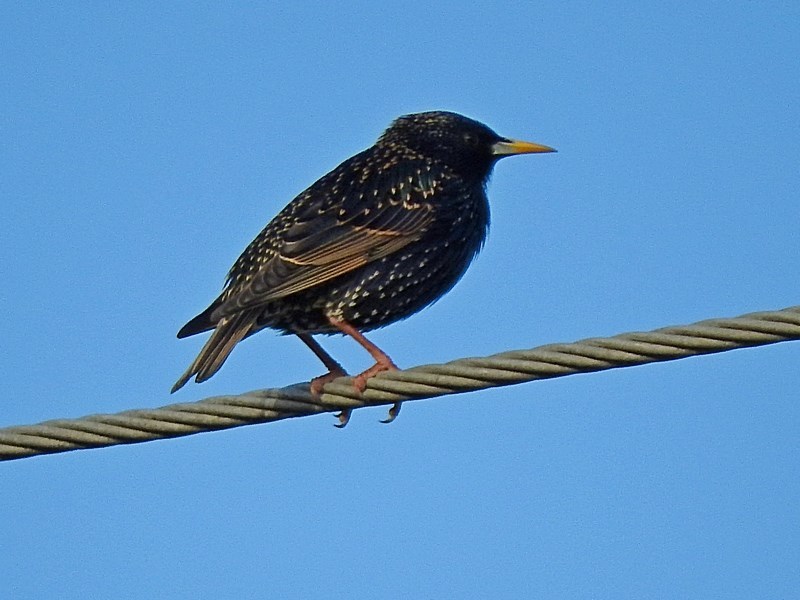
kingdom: Animalia
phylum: Chordata
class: Aves
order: Passeriformes
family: Sturnidae
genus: Sturnus
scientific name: Sturnus vulgaris
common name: Common starling
